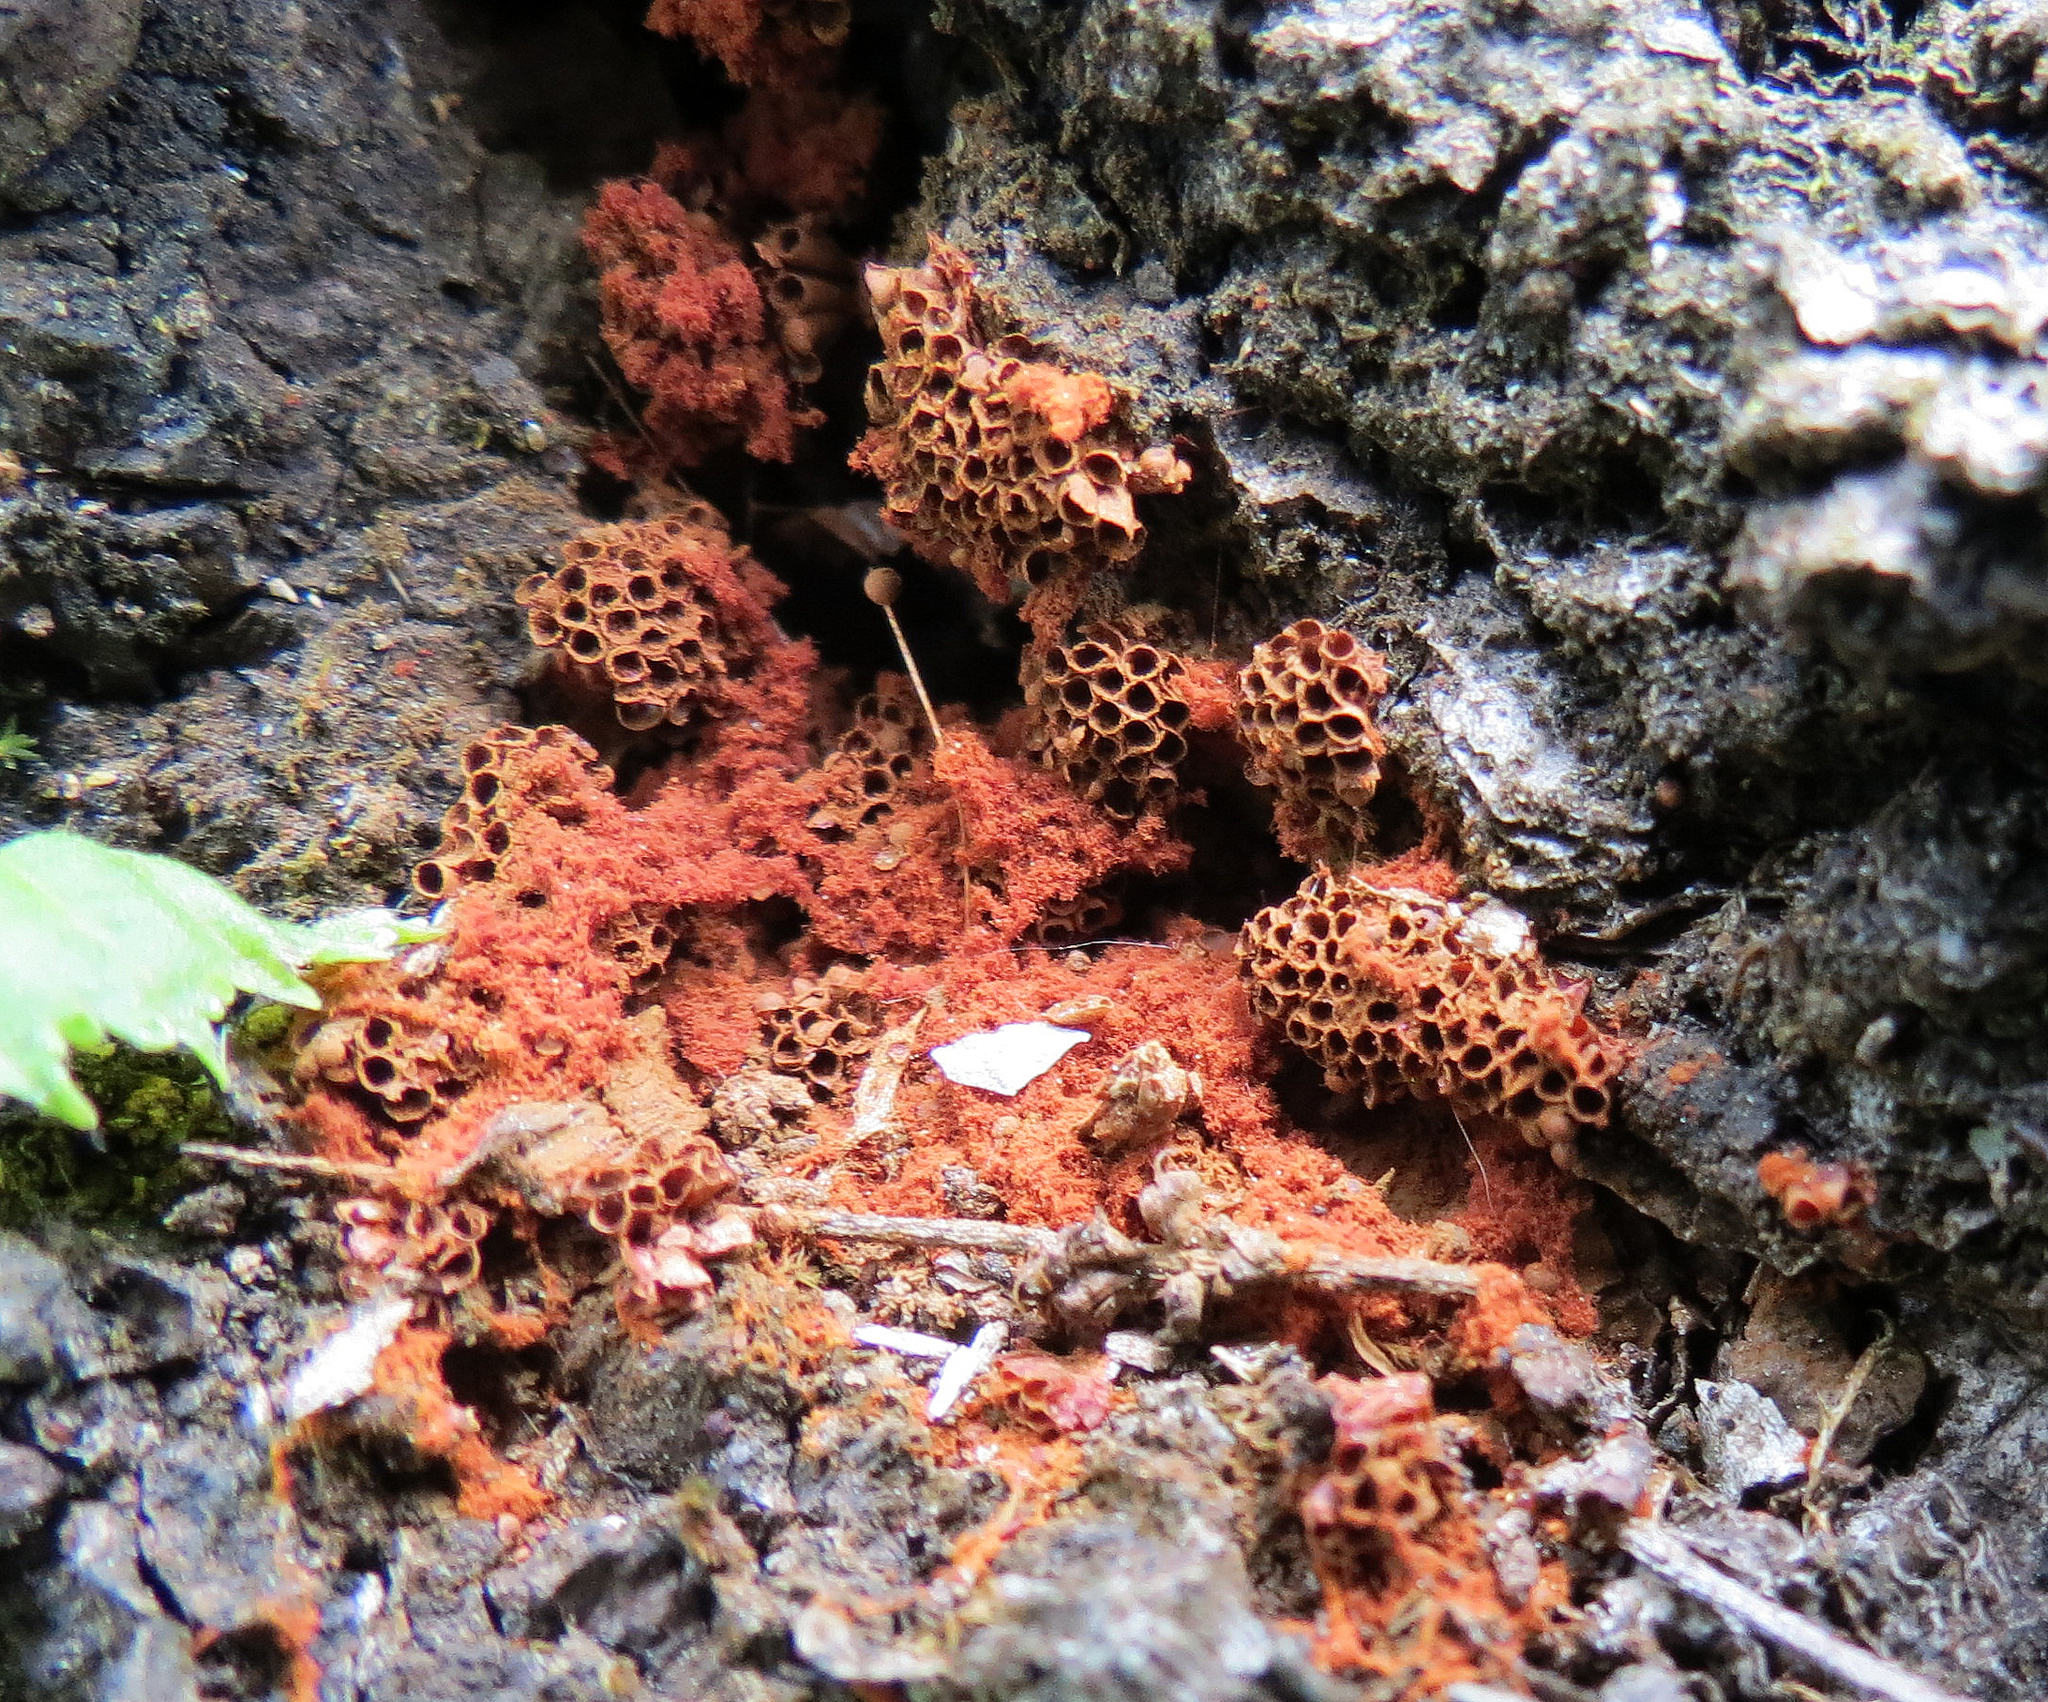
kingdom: Protozoa
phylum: Mycetozoa
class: Myxomycetes
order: Trichiales
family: Trichiaceae
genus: Metatrichia
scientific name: Metatrichia vesparia
